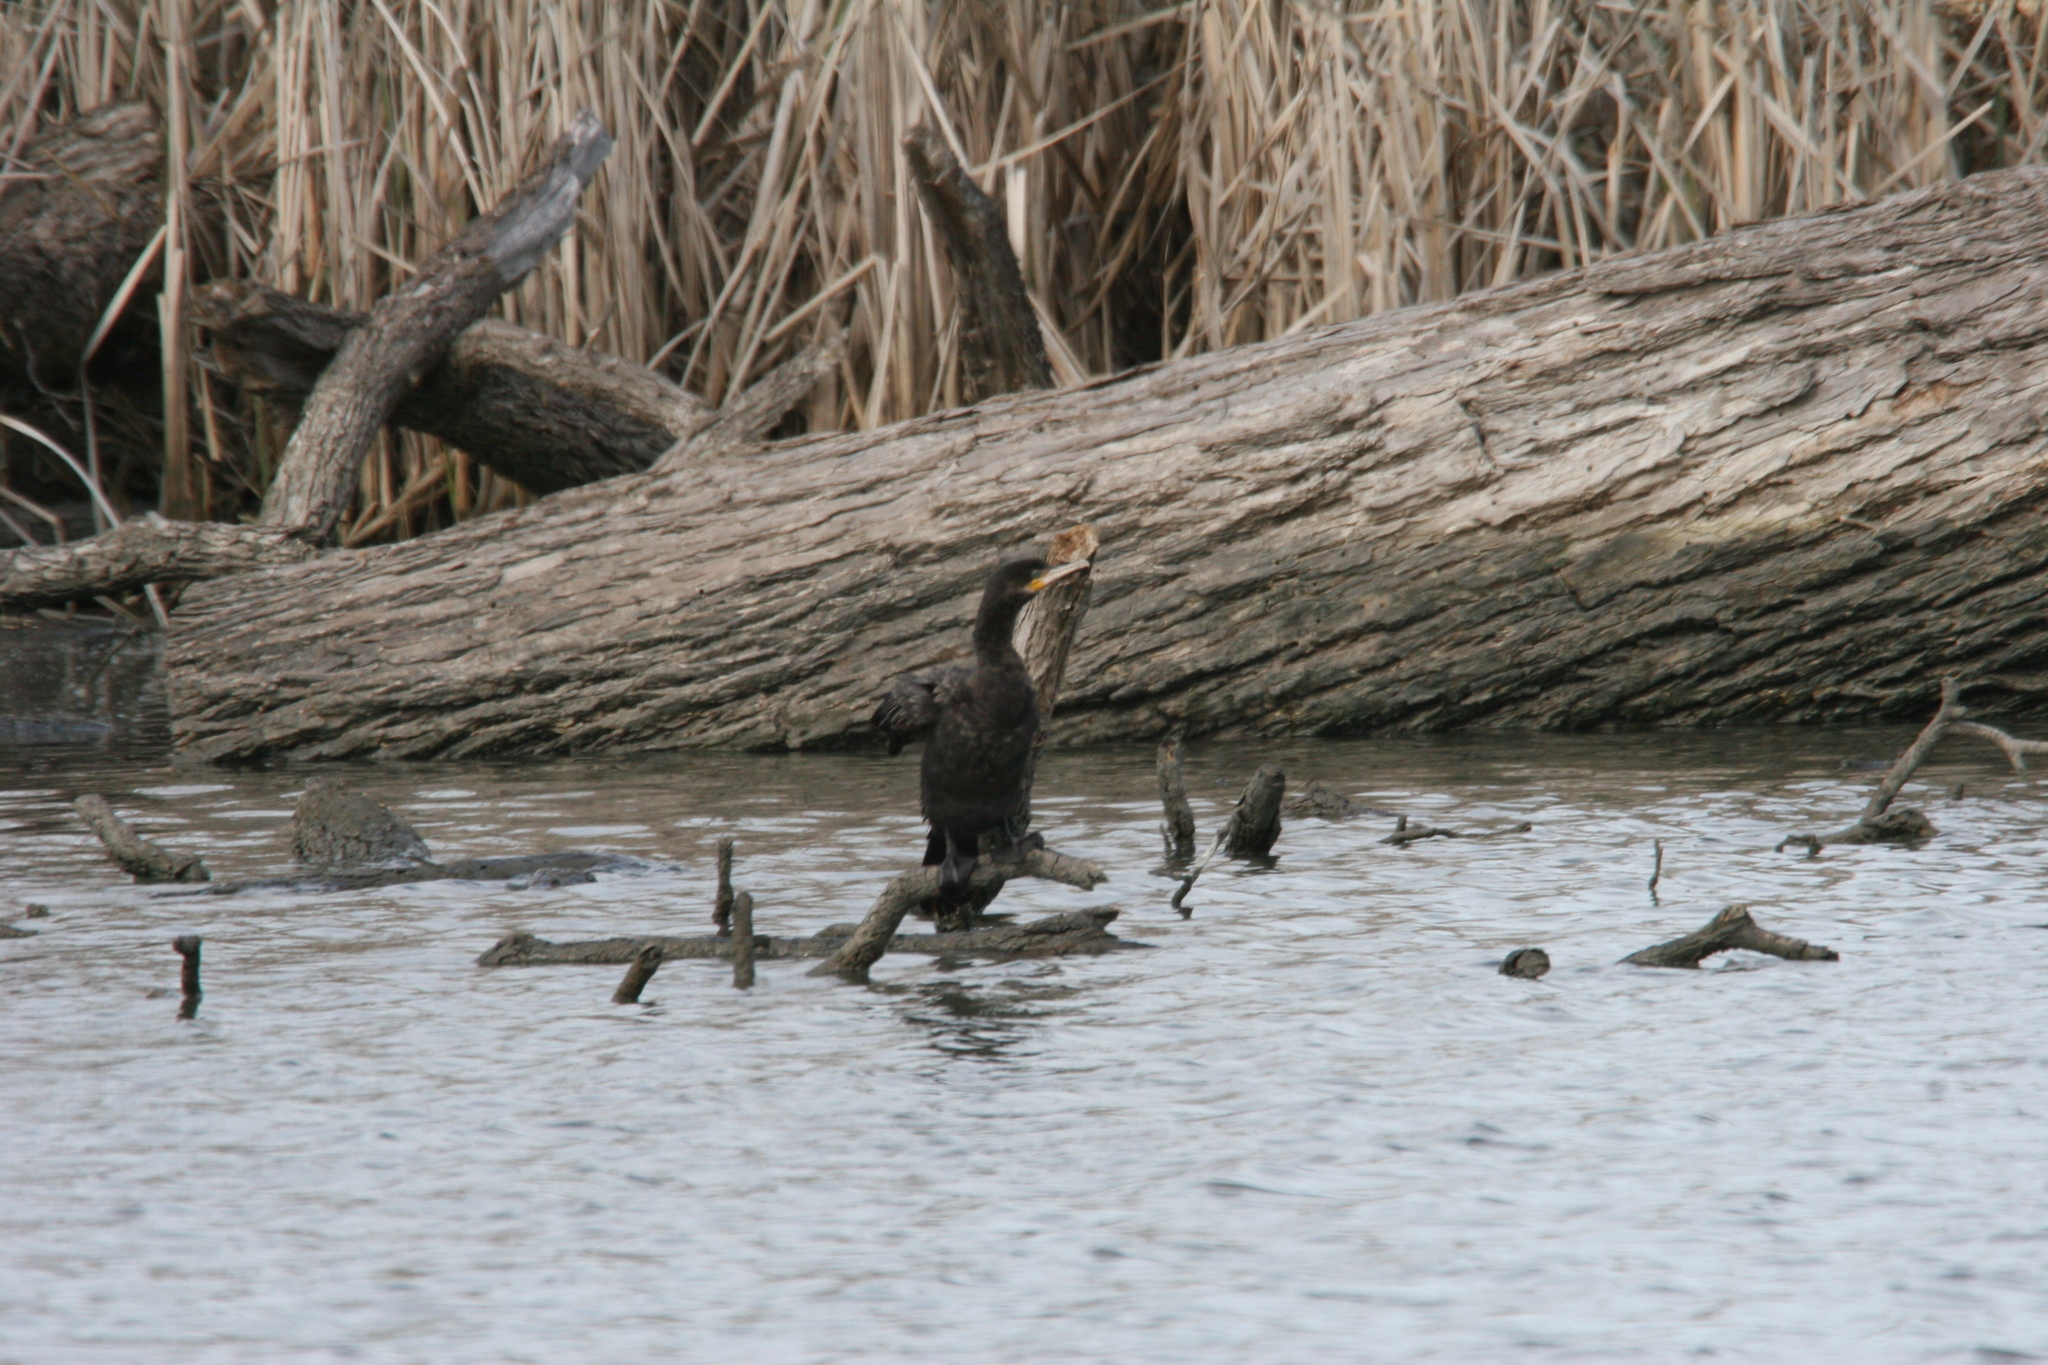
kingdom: Animalia
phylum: Chordata
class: Aves
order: Suliformes
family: Phalacrocoracidae
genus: Phalacrocorax
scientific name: Phalacrocorax brasilianus
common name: Neotropic cormorant
